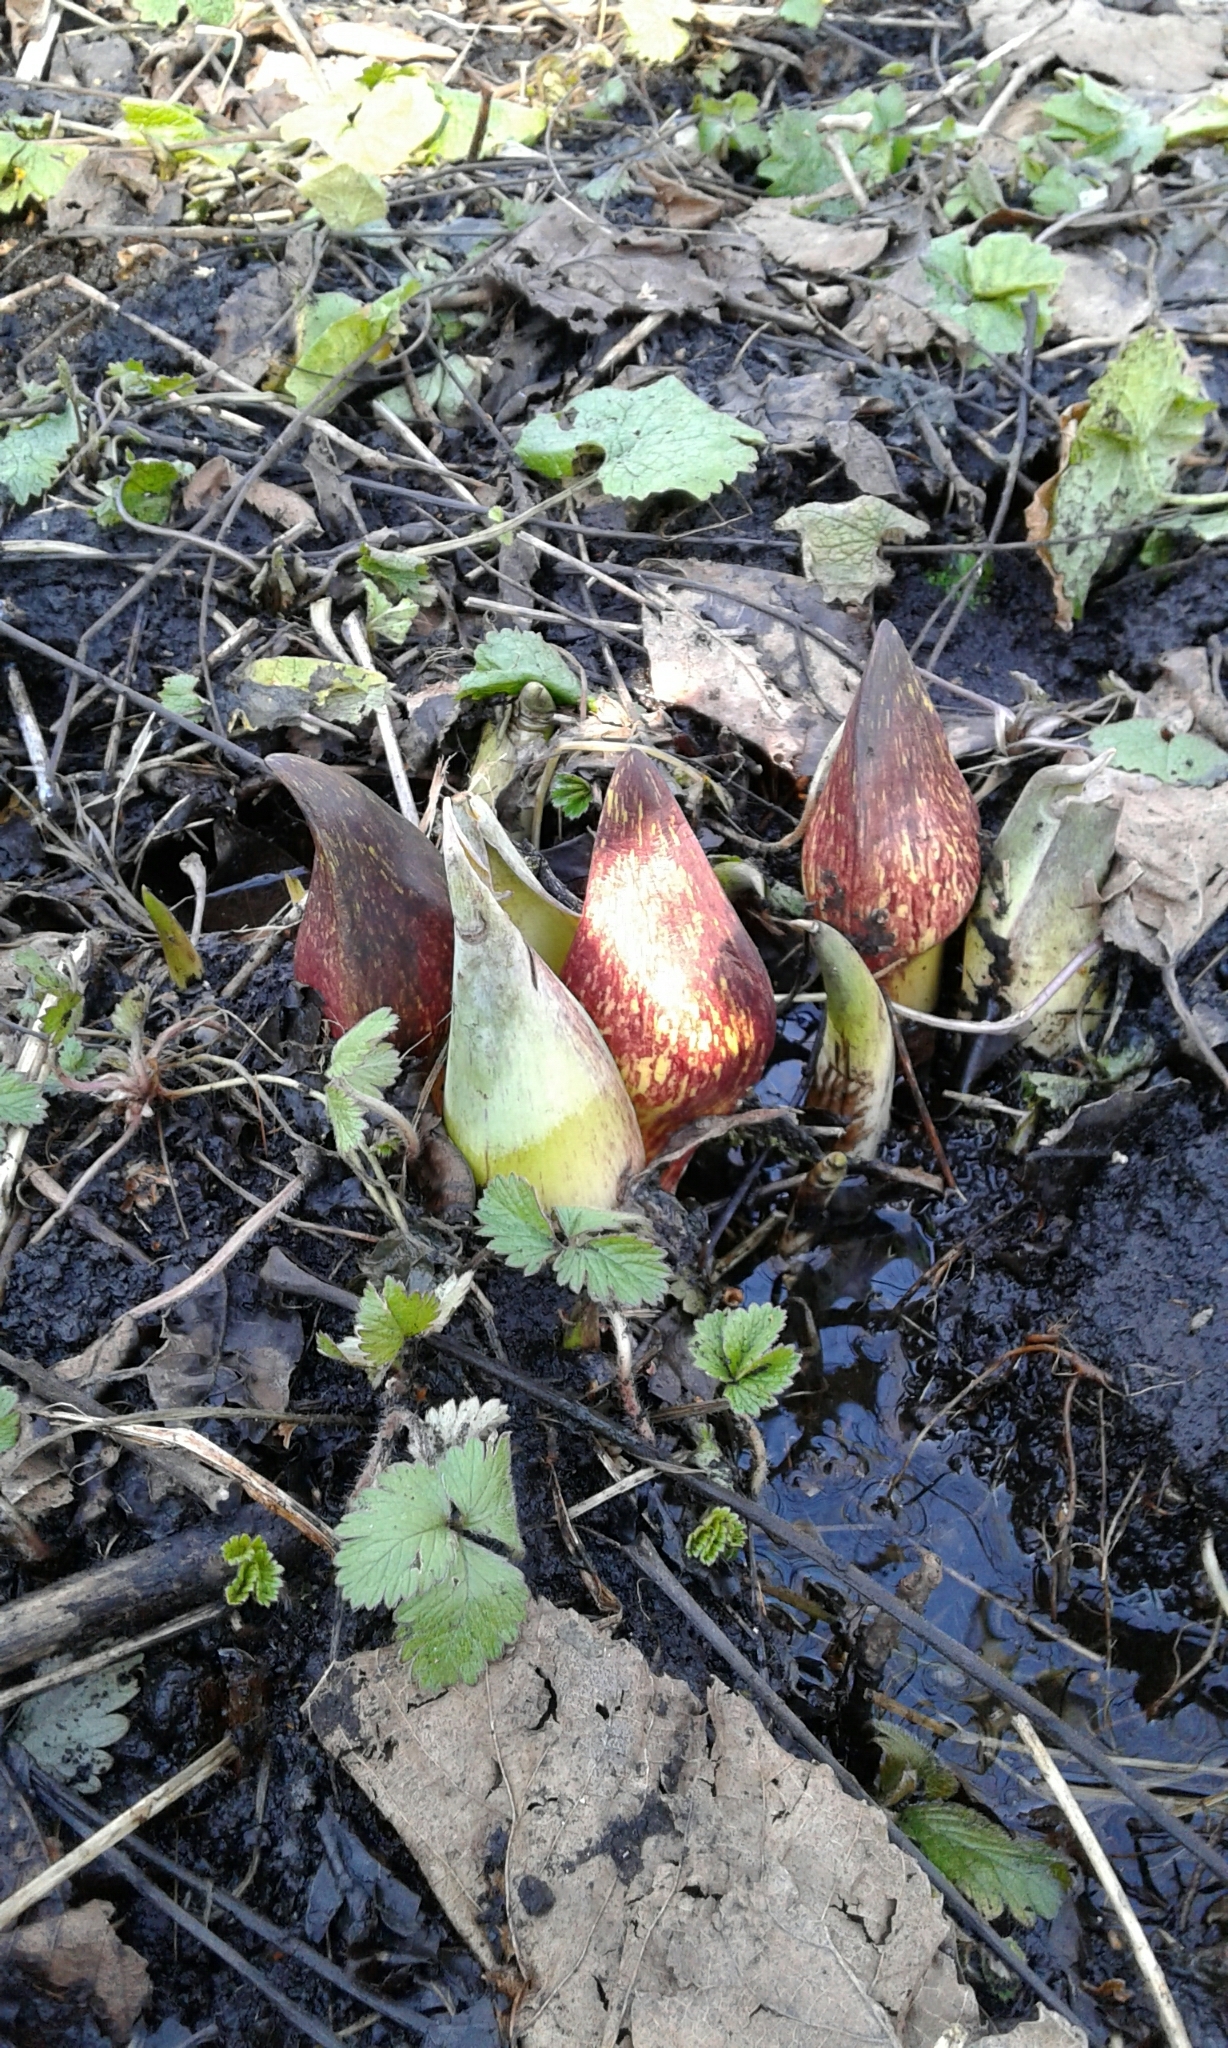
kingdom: Plantae
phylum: Tracheophyta
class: Liliopsida
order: Alismatales
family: Araceae
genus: Symplocarpus
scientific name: Symplocarpus foetidus
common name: Eastern skunk cabbage
